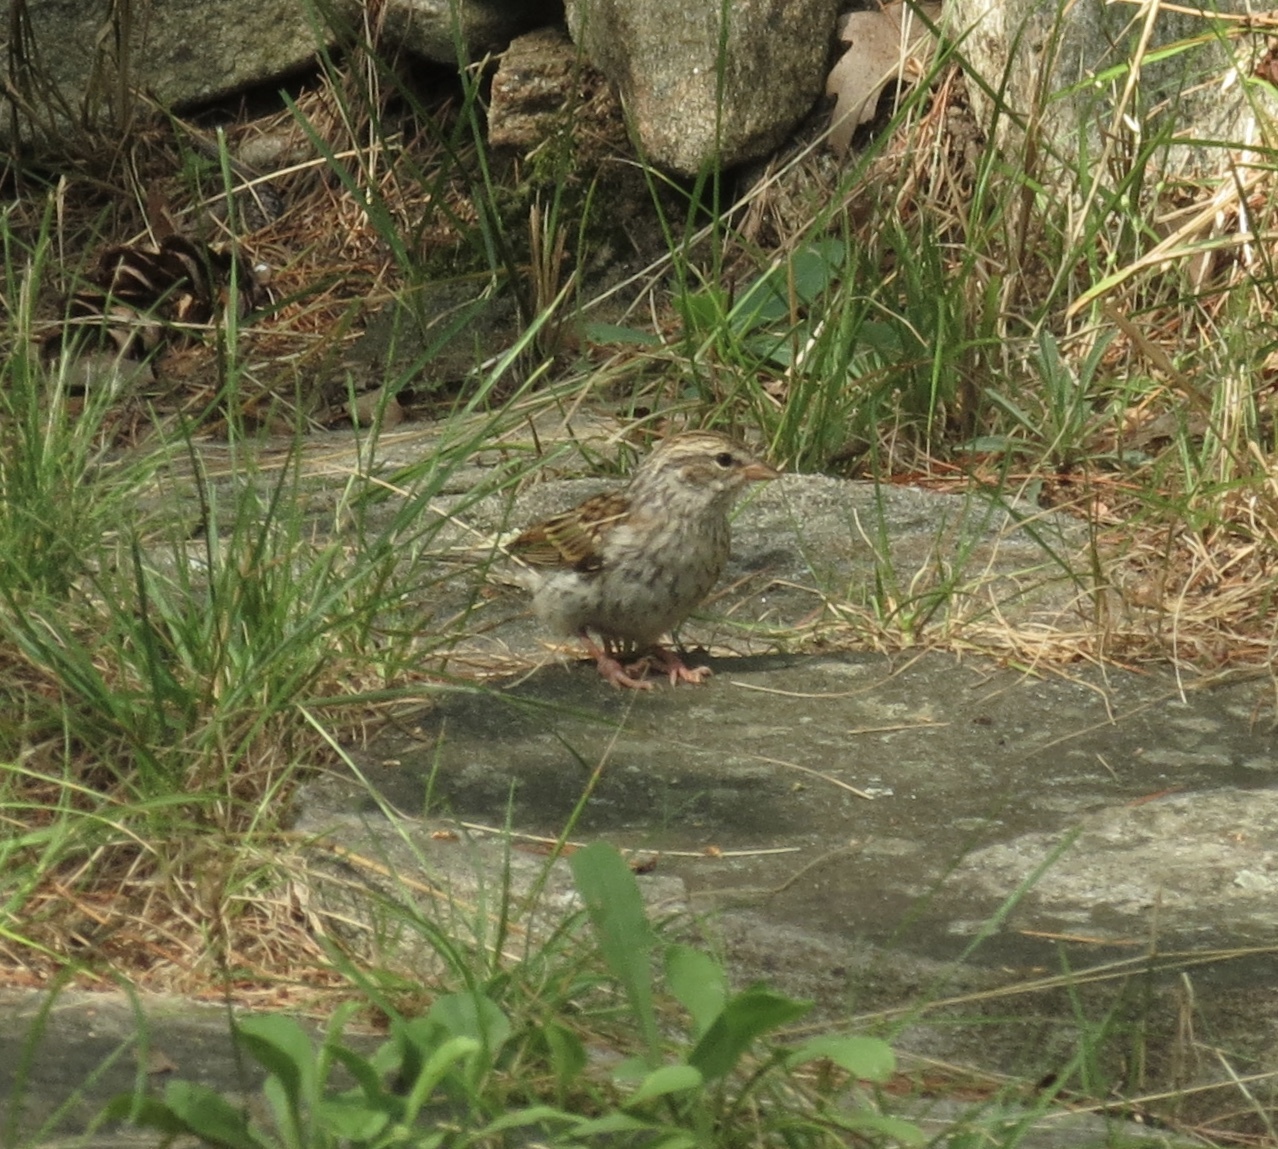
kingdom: Animalia
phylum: Chordata
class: Aves
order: Passeriformes
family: Passerellidae
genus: Melospiza
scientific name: Melospiza melodia
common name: Song sparrow
